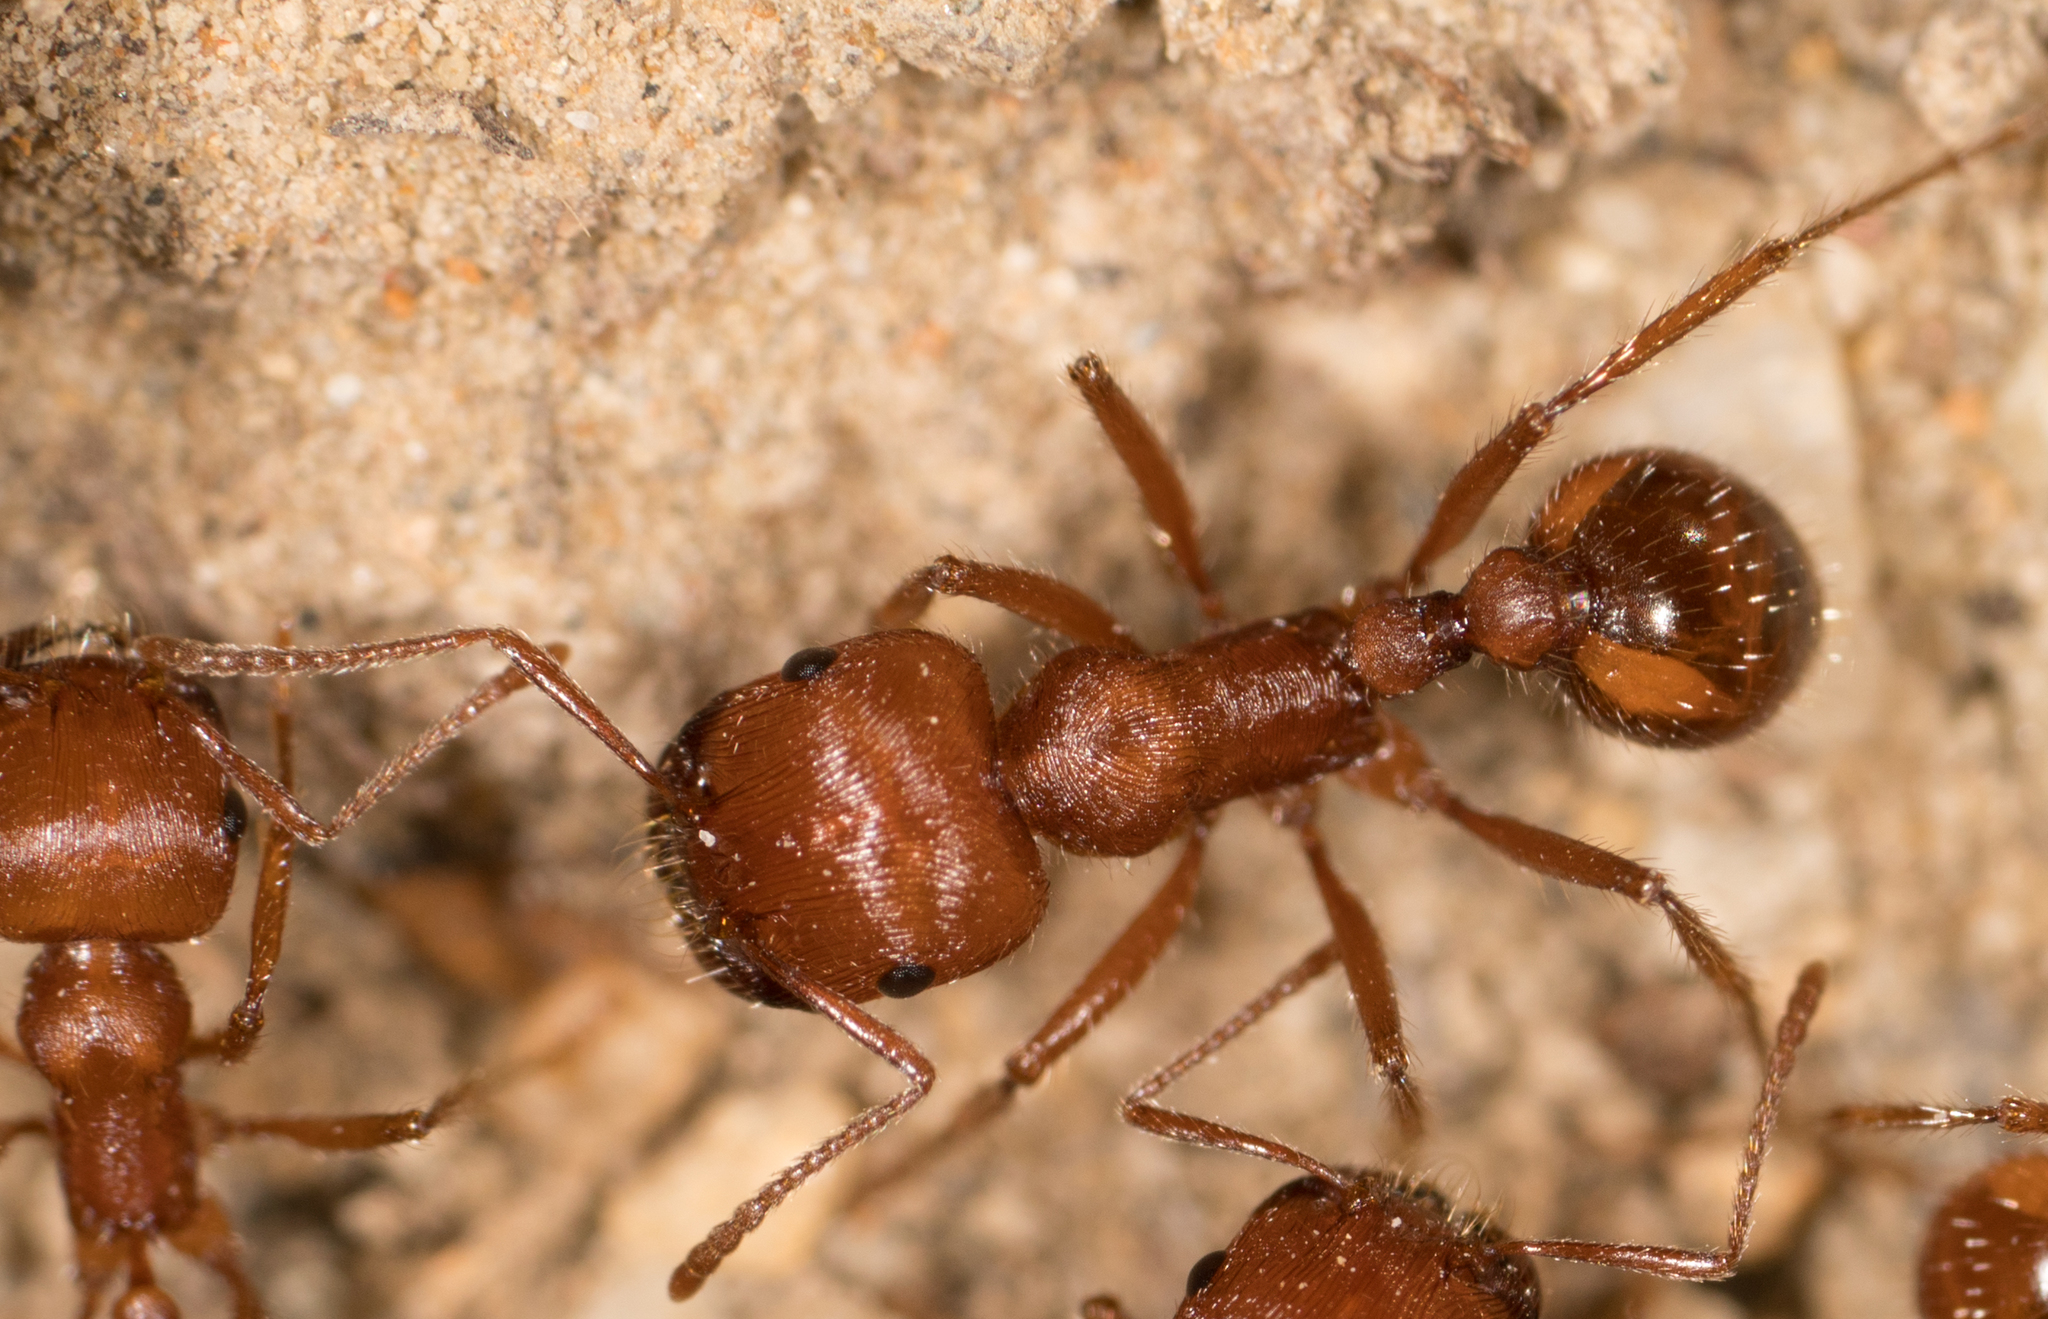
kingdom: Animalia
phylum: Arthropoda
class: Insecta
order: Hymenoptera
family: Formicidae
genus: Pogonomyrmex
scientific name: Pogonomyrmex subnitidus
